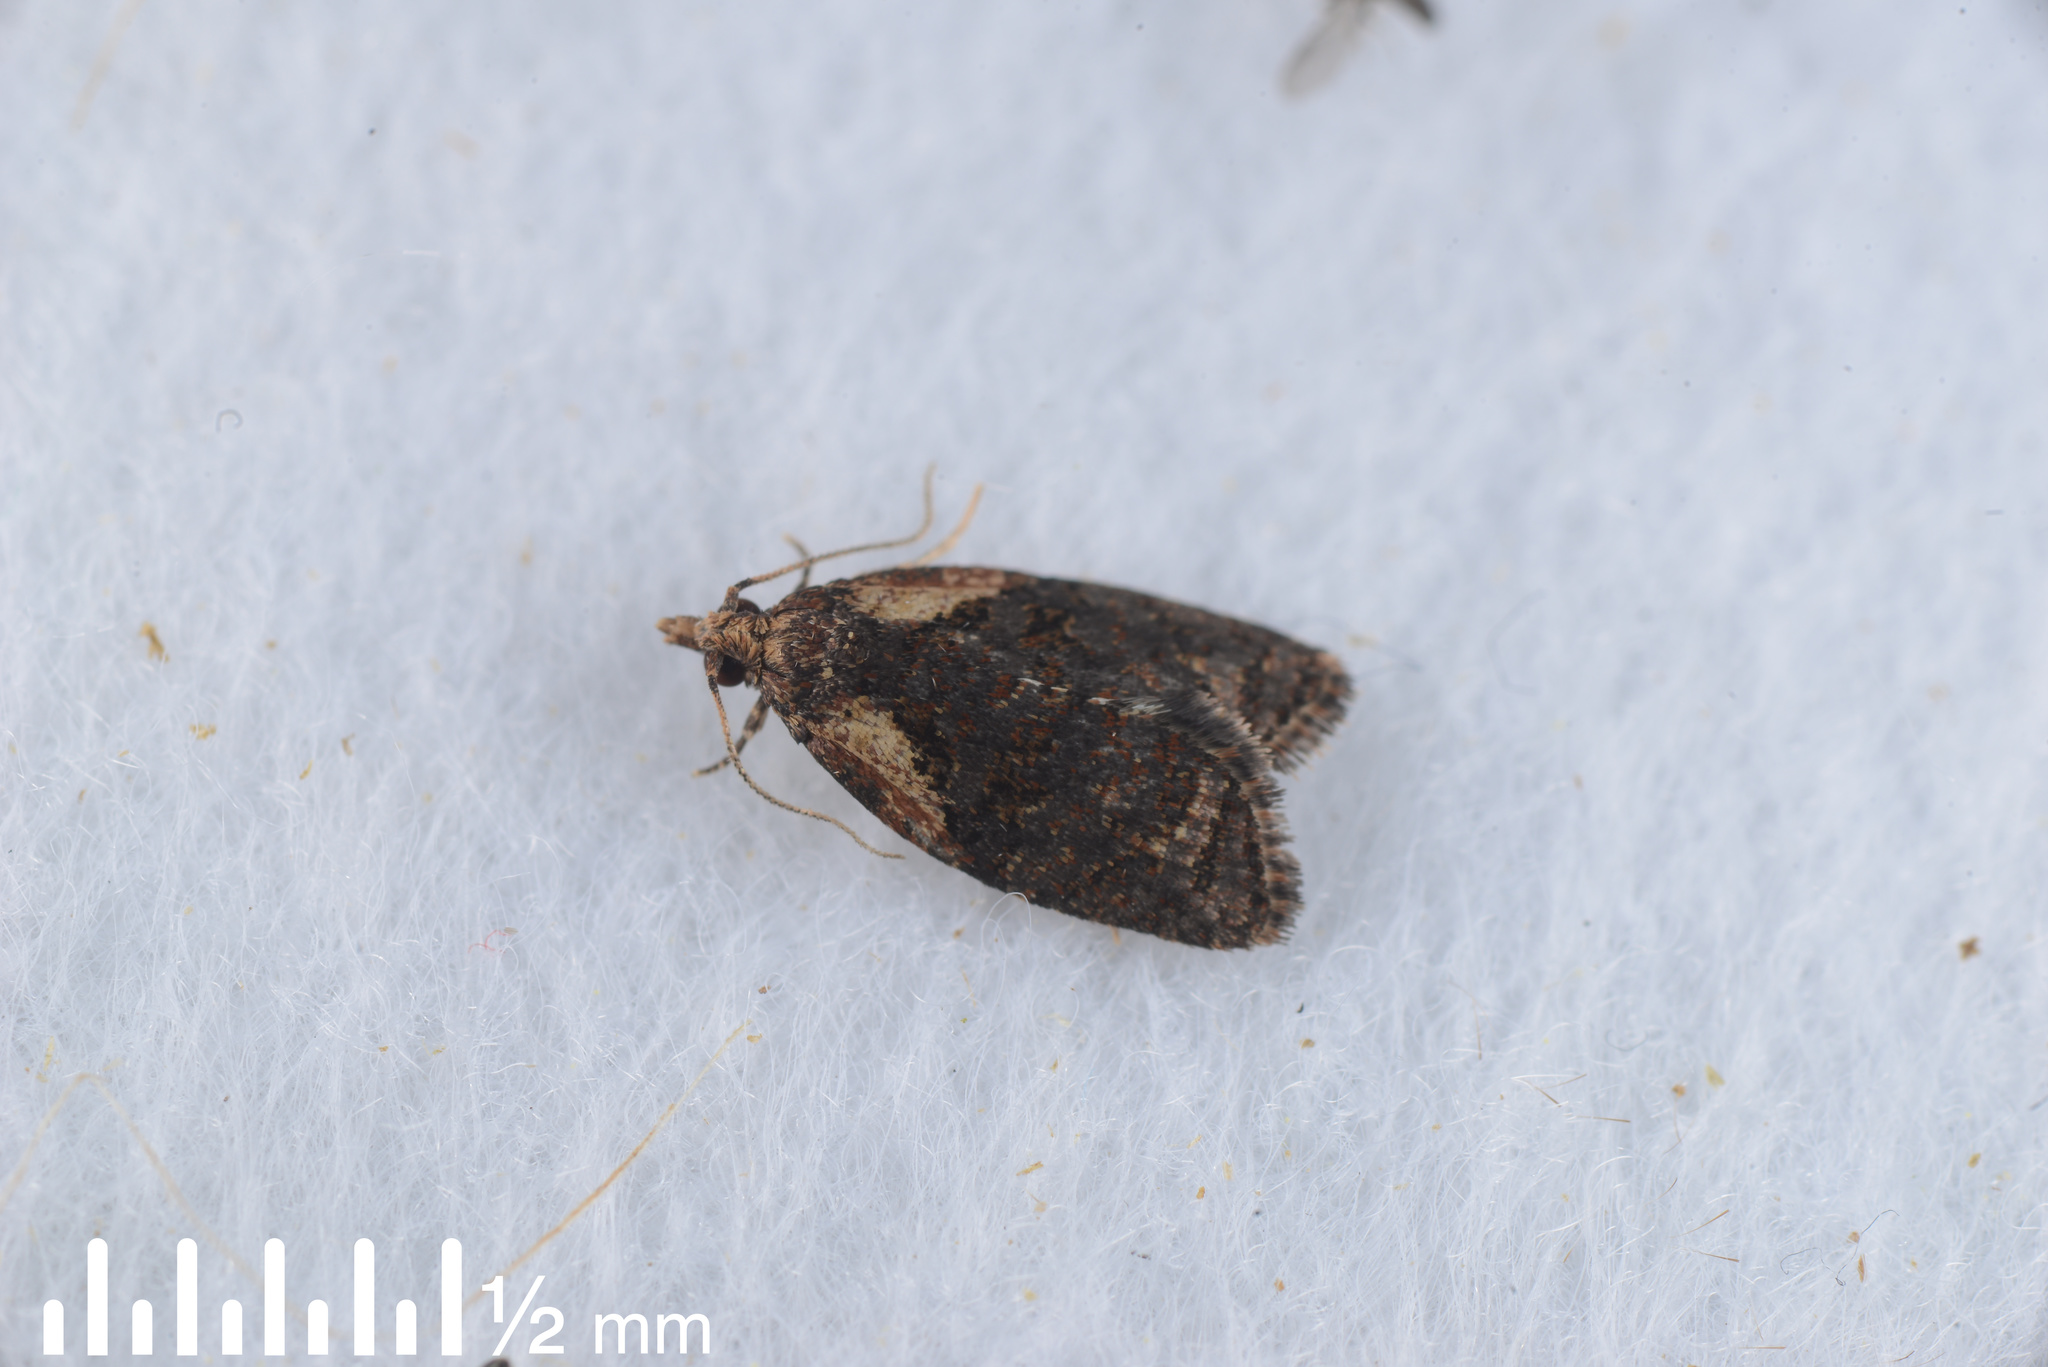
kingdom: Animalia
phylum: Arthropoda
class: Insecta
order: Lepidoptera
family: Tortricidae
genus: Capua
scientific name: Capua intractana
